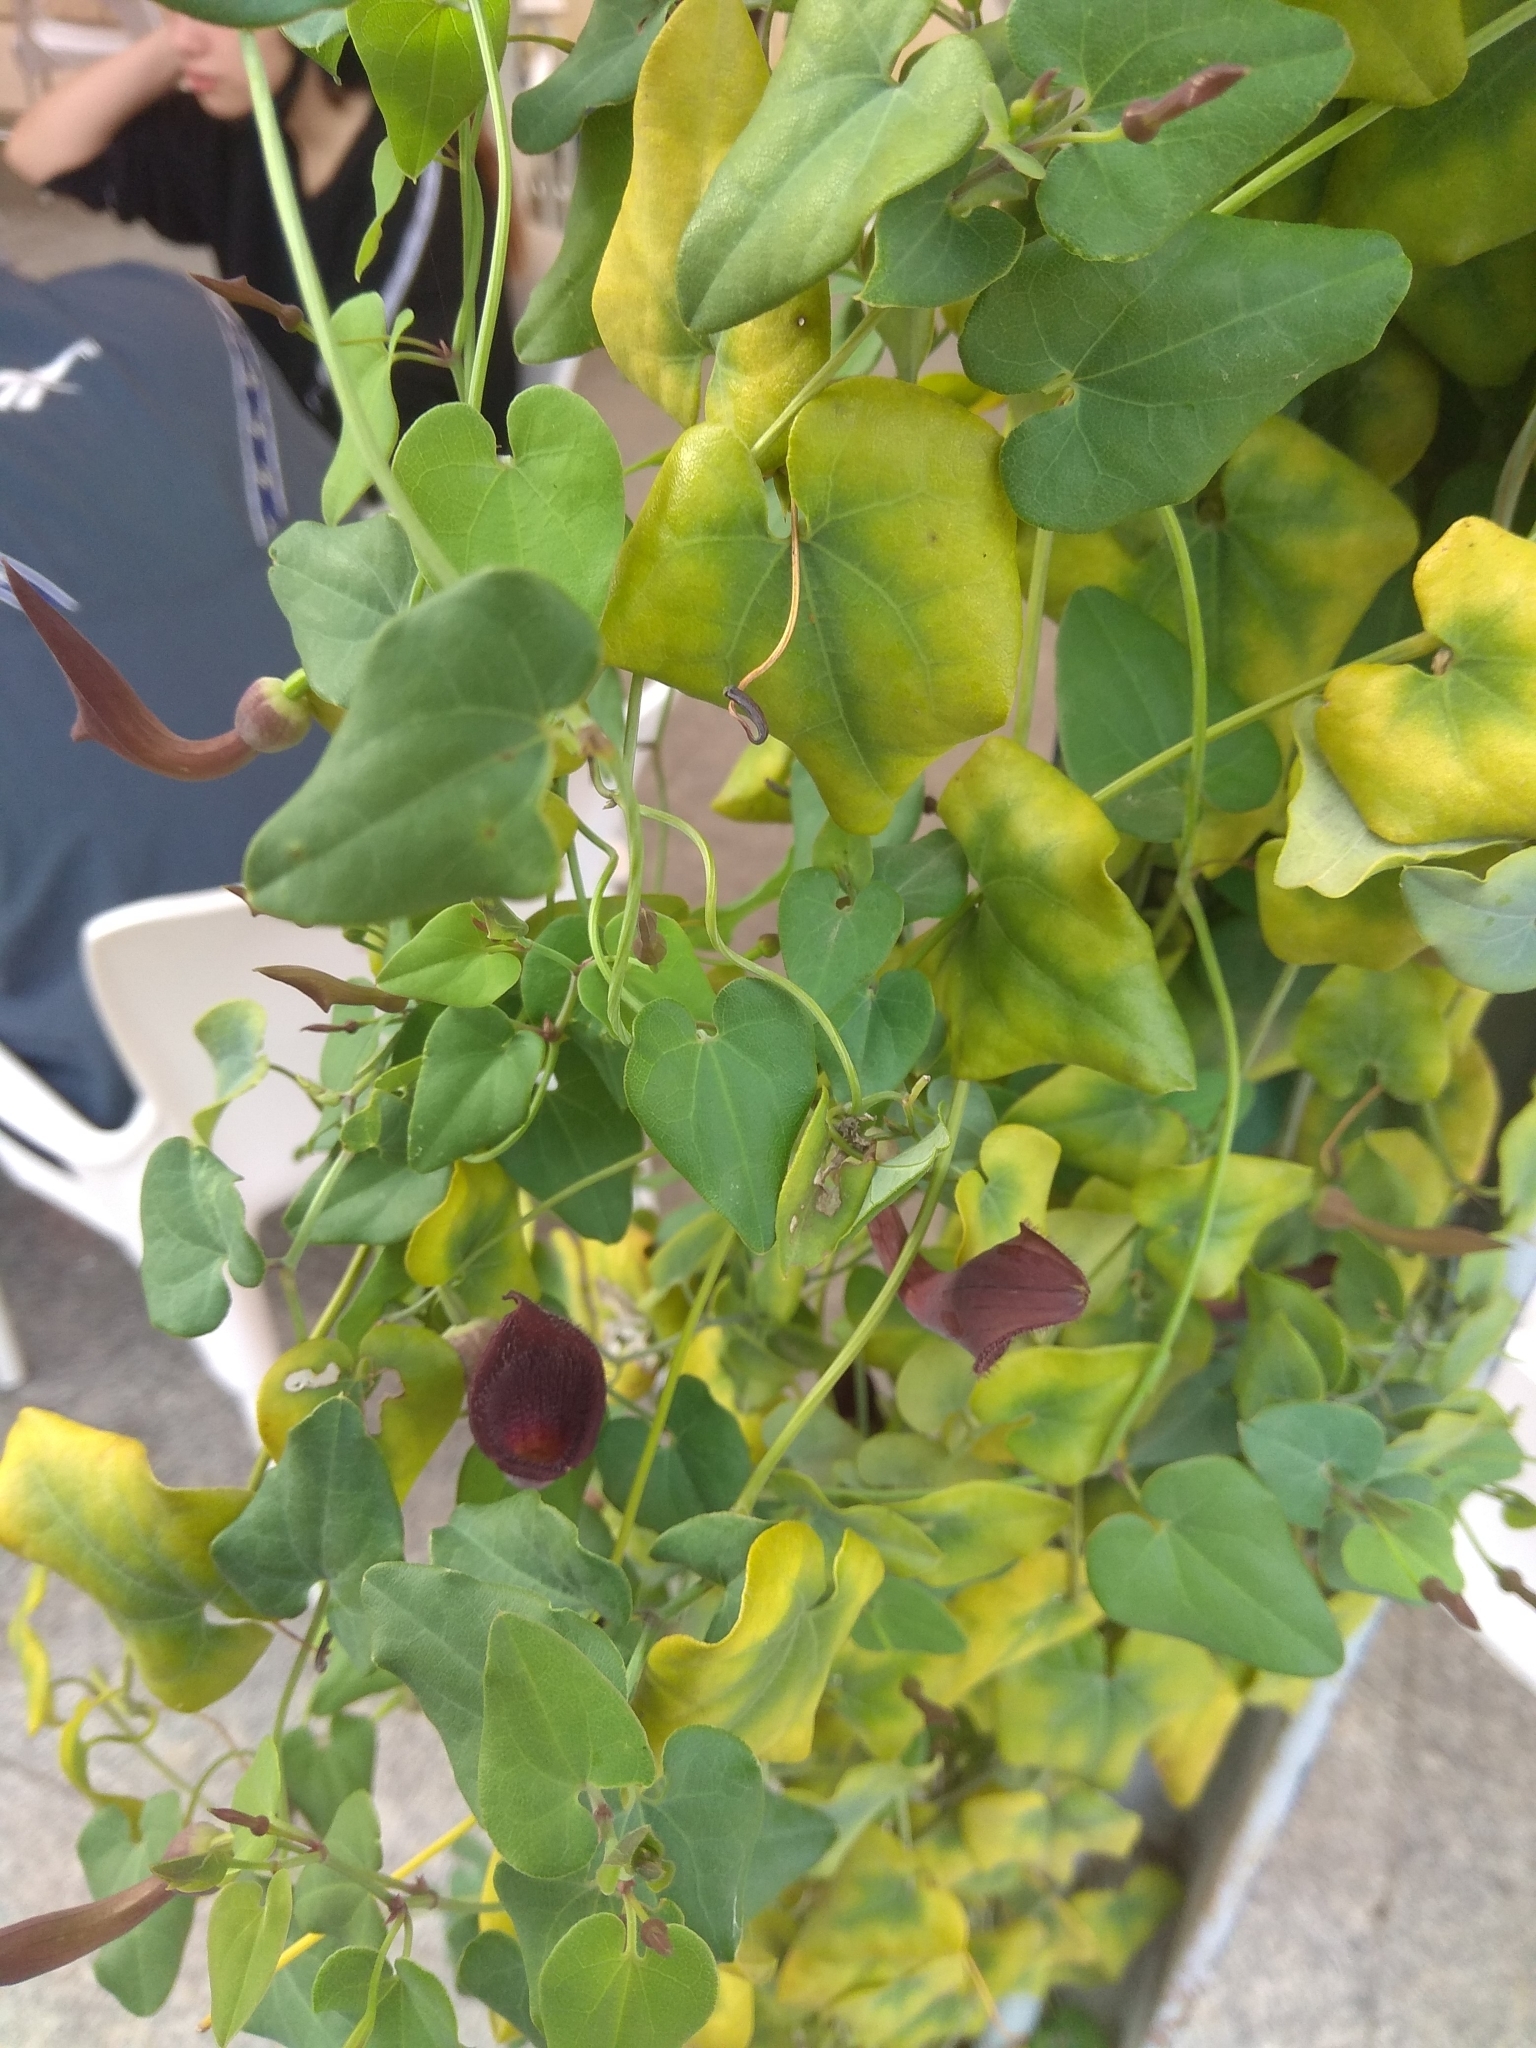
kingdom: Plantae
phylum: Tracheophyta
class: Magnoliopsida
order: Piperales
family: Aristolochiaceae
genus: Aristolochia
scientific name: Aristolochia baetica
